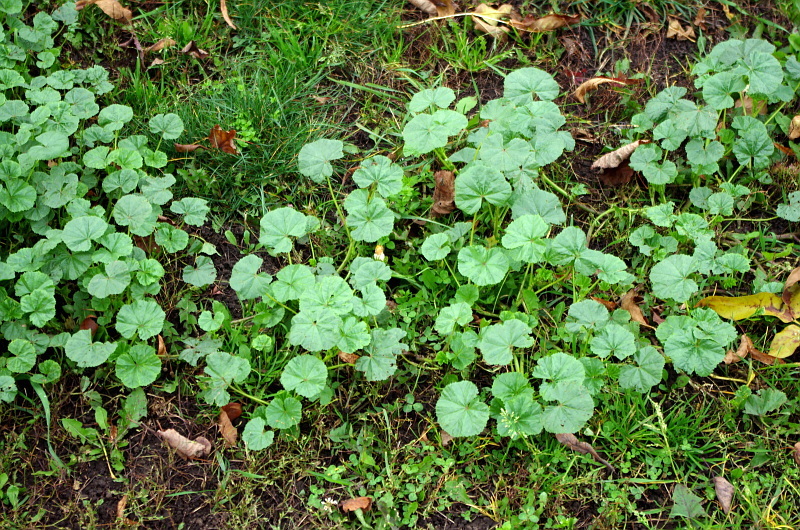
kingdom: Plantae
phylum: Tracheophyta
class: Magnoliopsida
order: Malvales
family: Malvaceae
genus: Malva
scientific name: Malva pusilla
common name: Small mallow
